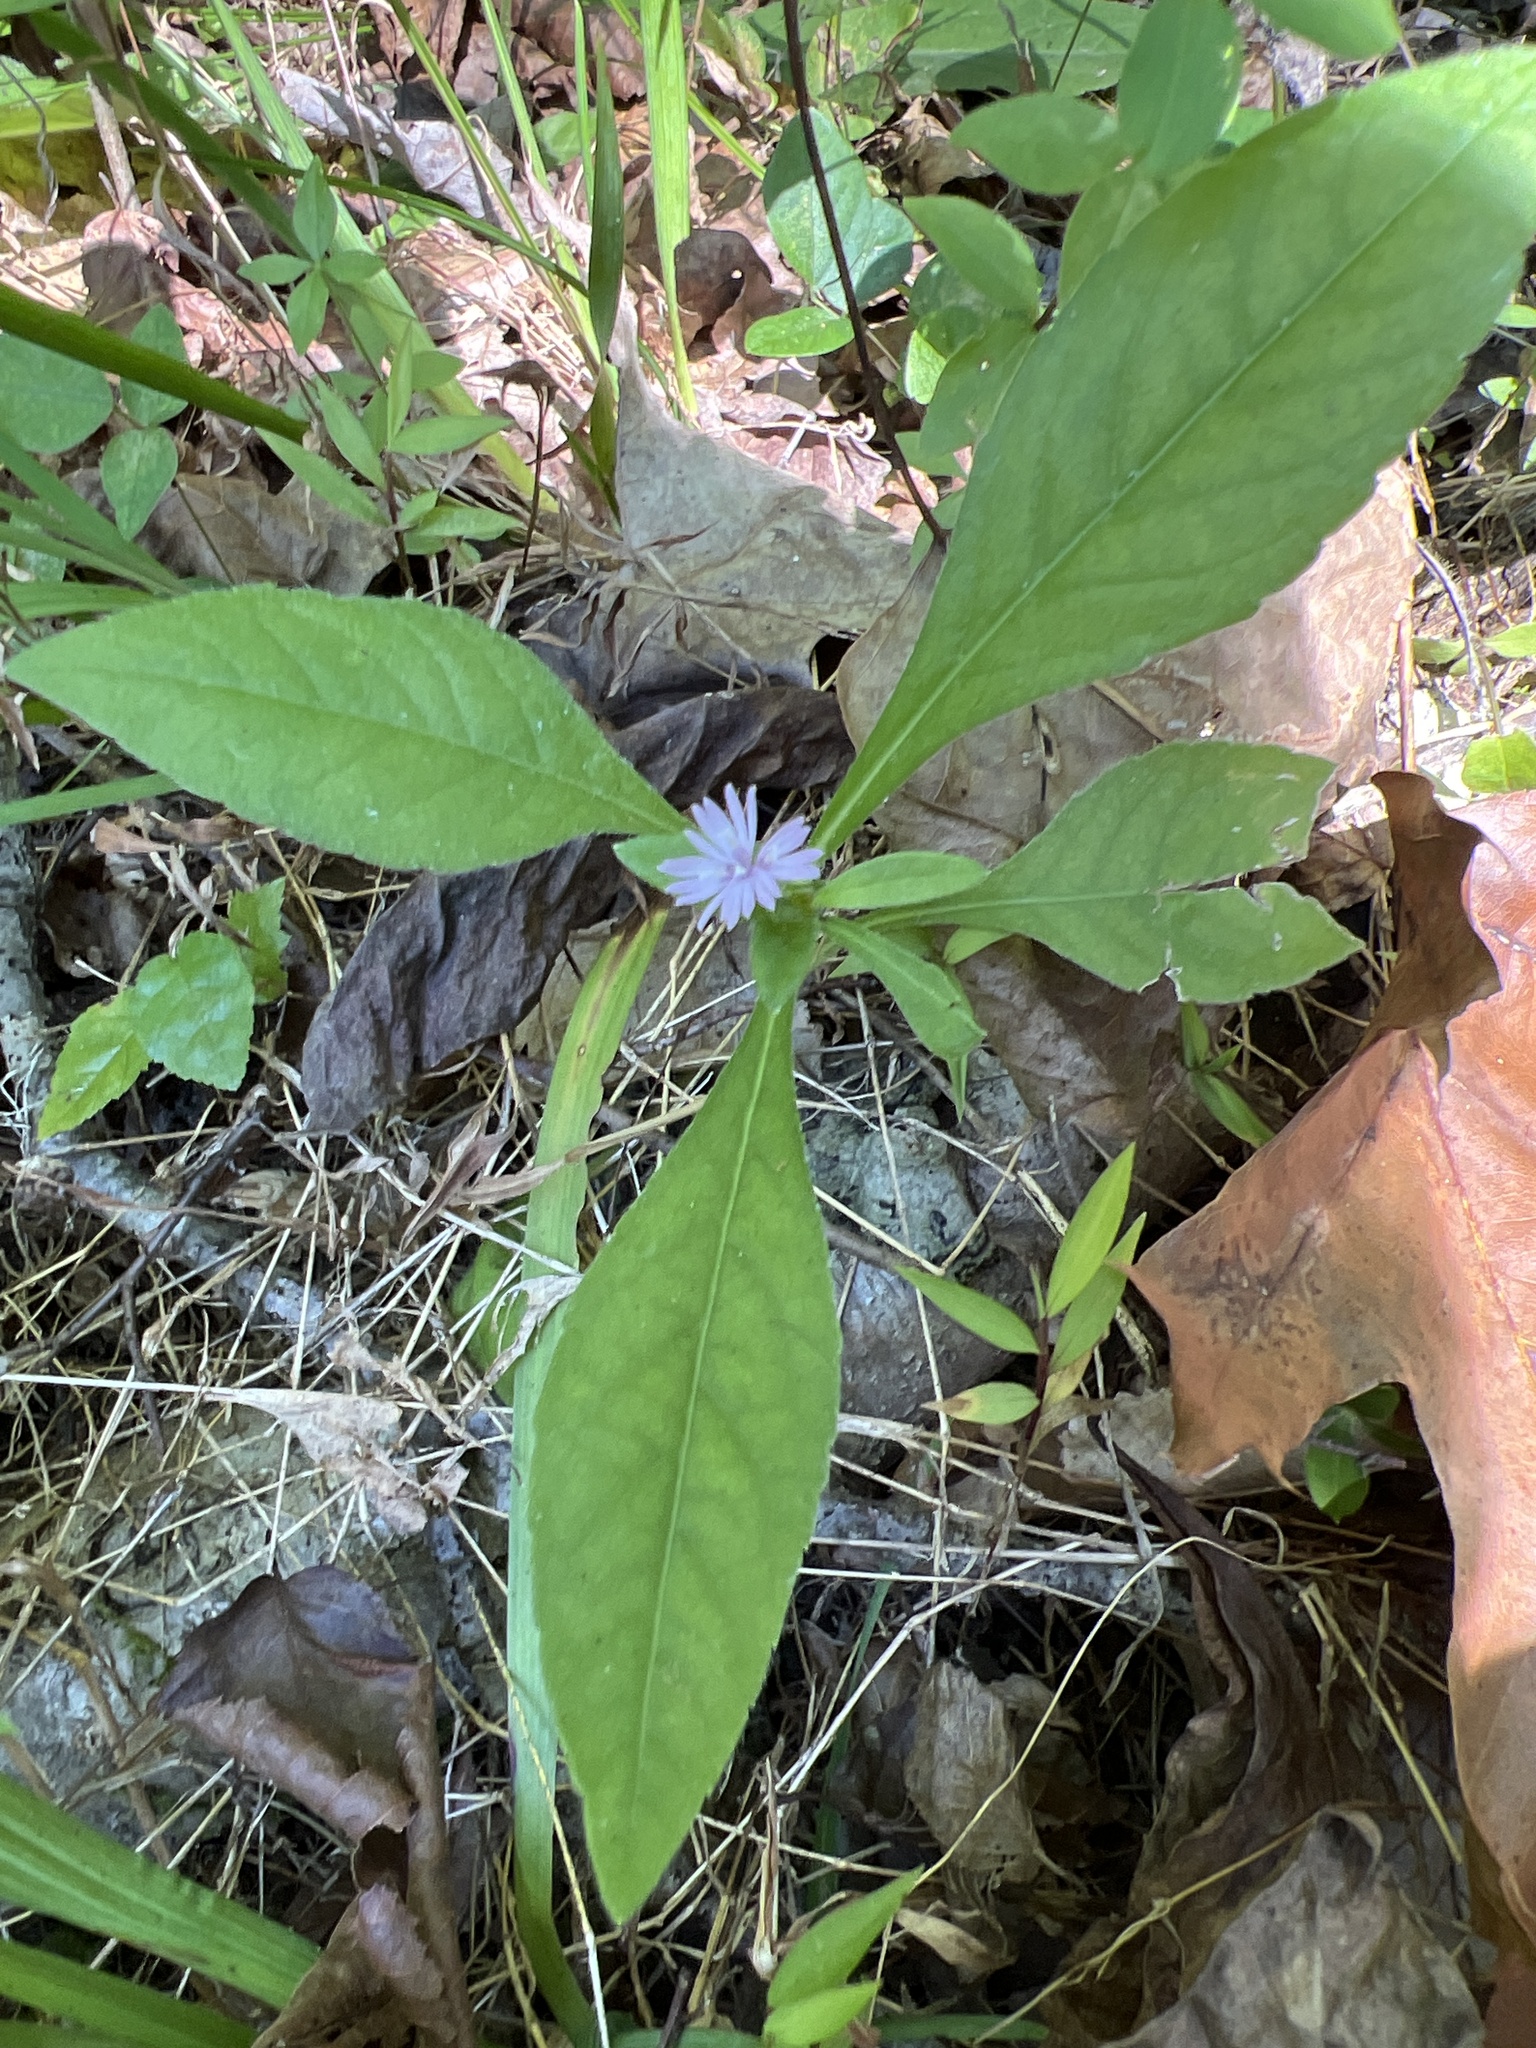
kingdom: Plantae
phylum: Tracheophyta
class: Magnoliopsida
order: Asterales
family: Asteraceae
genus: Elephantopus
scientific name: Elephantopus carolinianus
